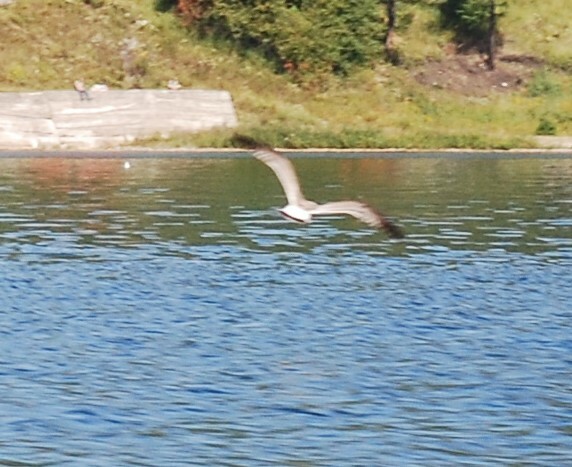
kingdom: Animalia
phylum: Chordata
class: Aves
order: Charadriiformes
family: Laridae
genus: Larus
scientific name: Larus canus
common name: Mew gull
